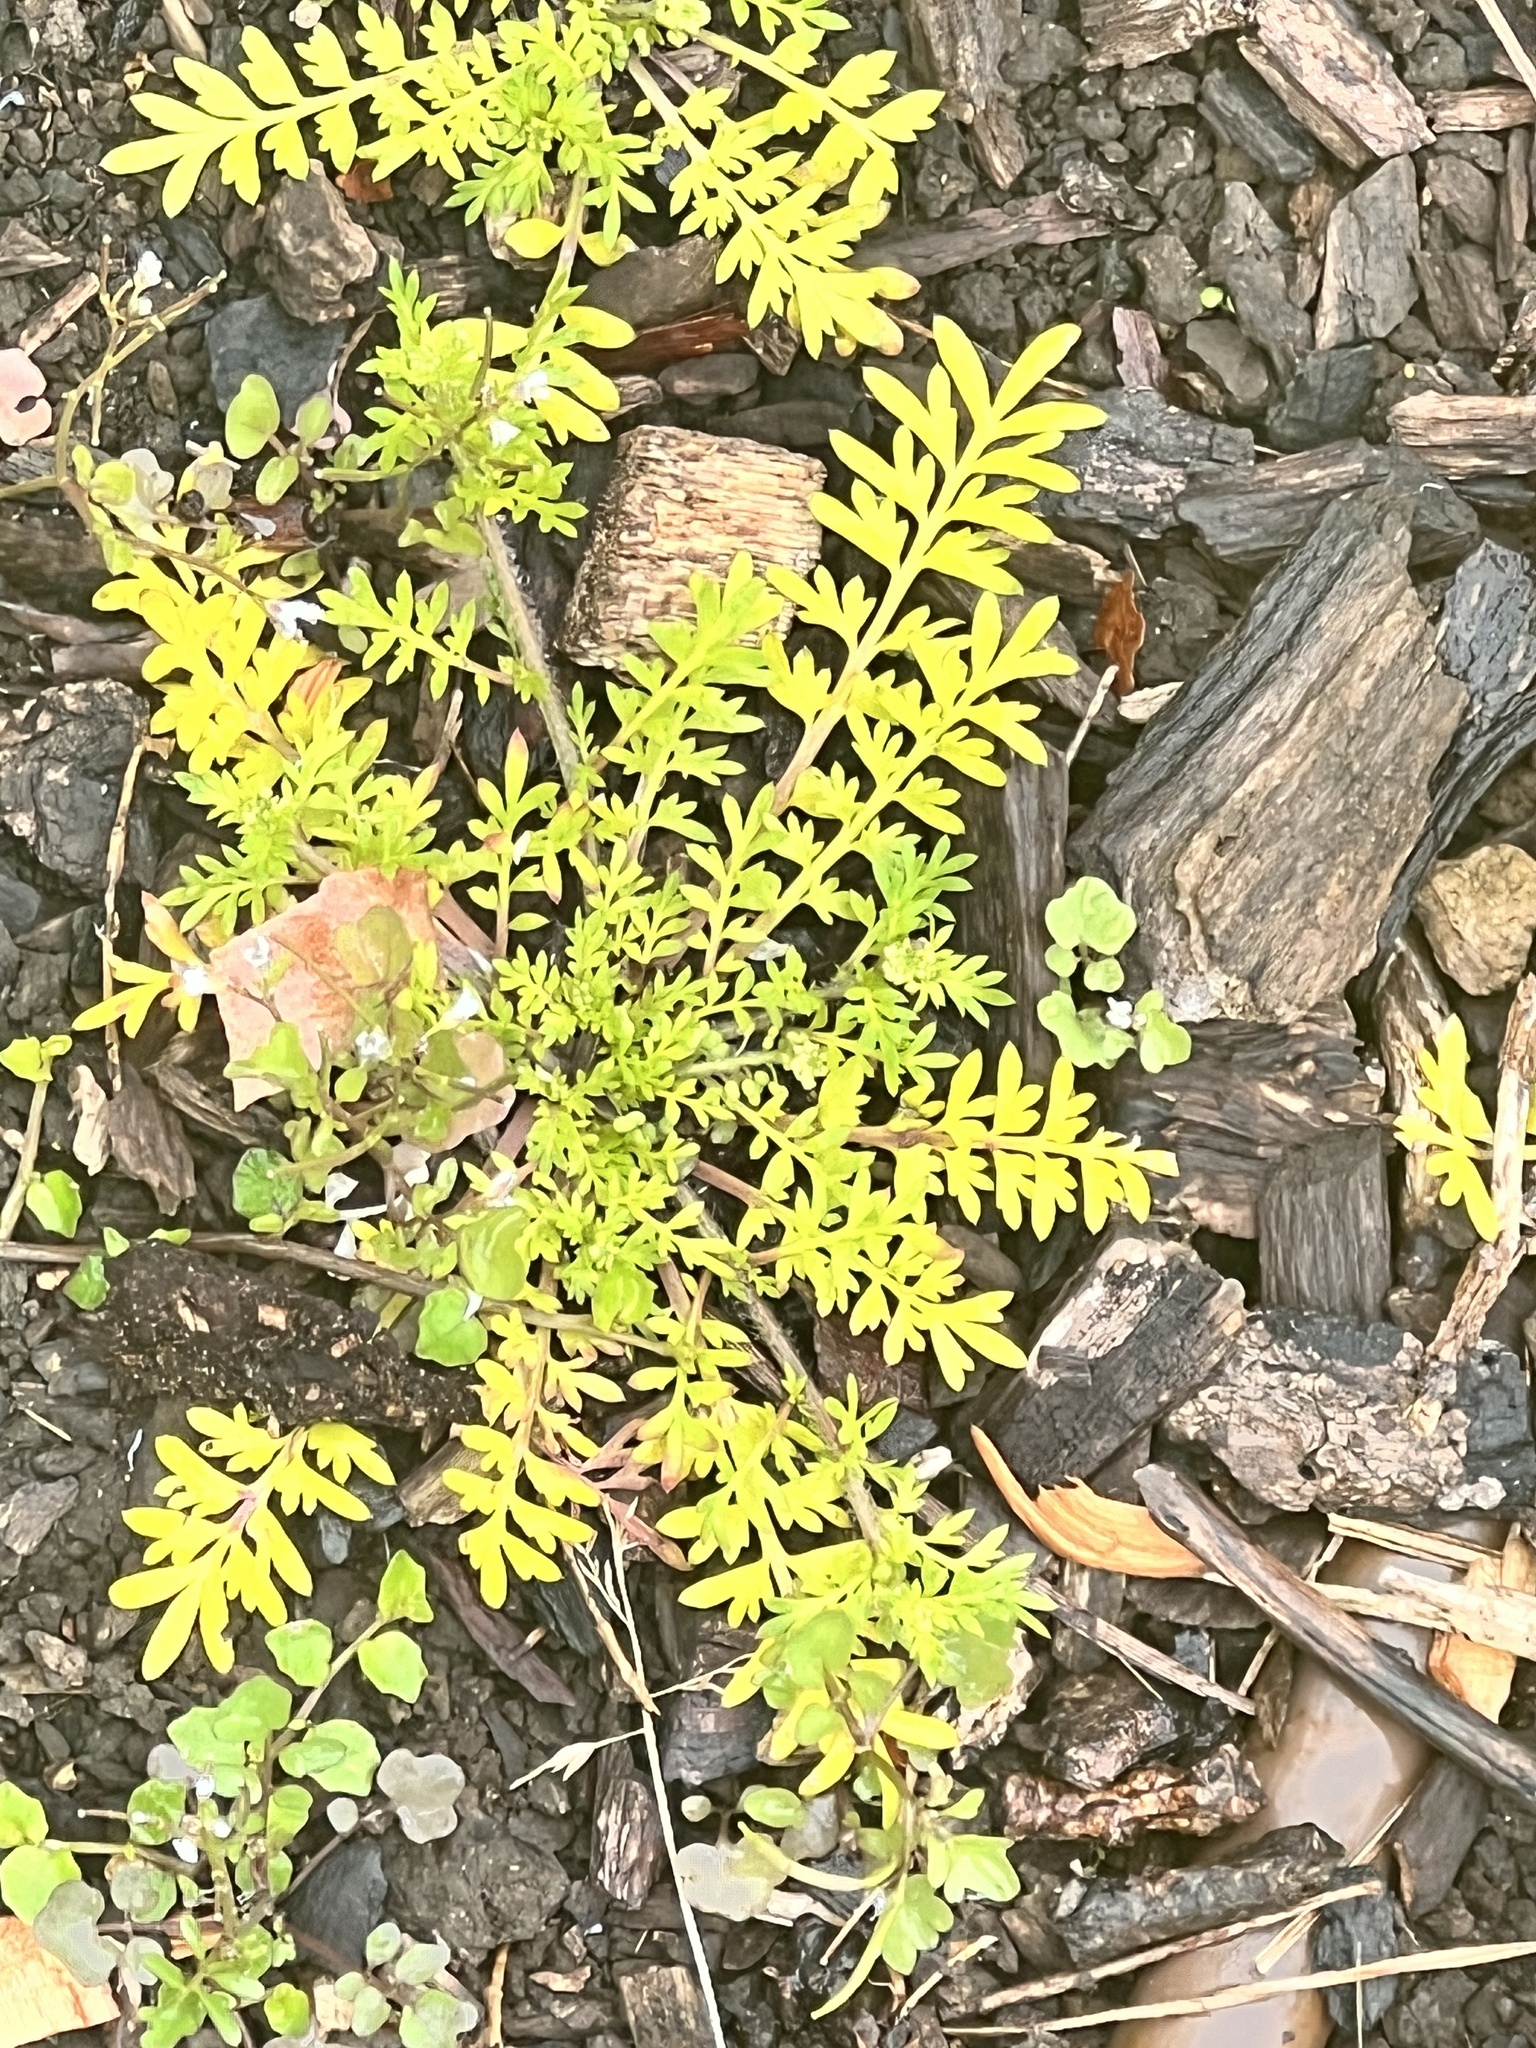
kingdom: Plantae
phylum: Tracheophyta
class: Magnoliopsida
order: Brassicales
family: Brassicaceae
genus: Lepidium
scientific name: Lepidium didymum
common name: Lesser swinecress
